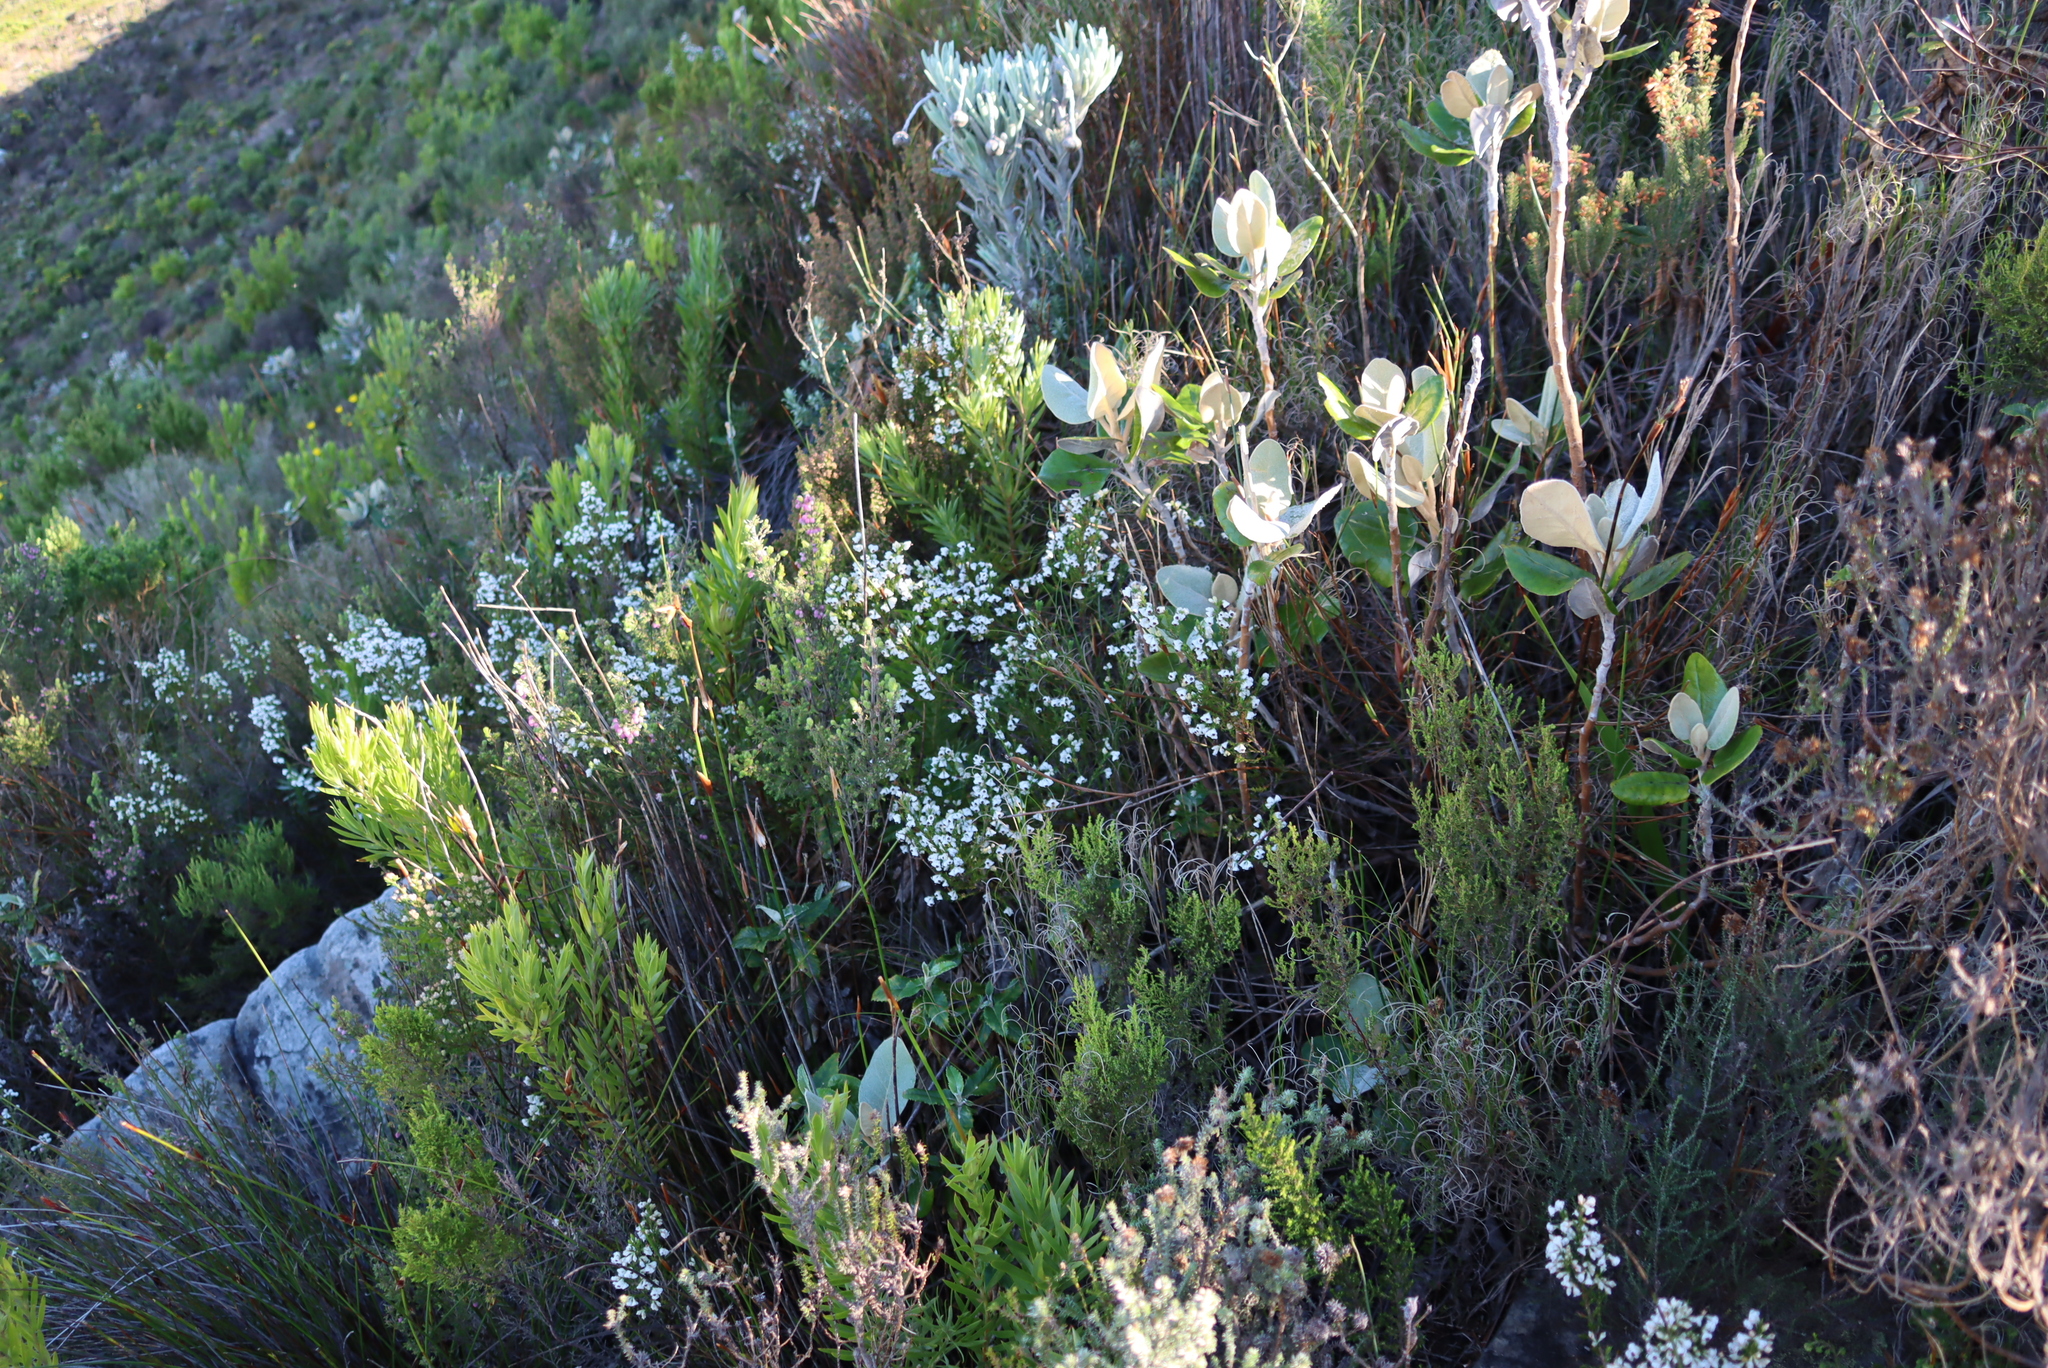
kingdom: Plantae
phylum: Tracheophyta
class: Magnoliopsida
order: Asterales
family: Asteraceae
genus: Capelio
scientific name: Capelio tabularis
